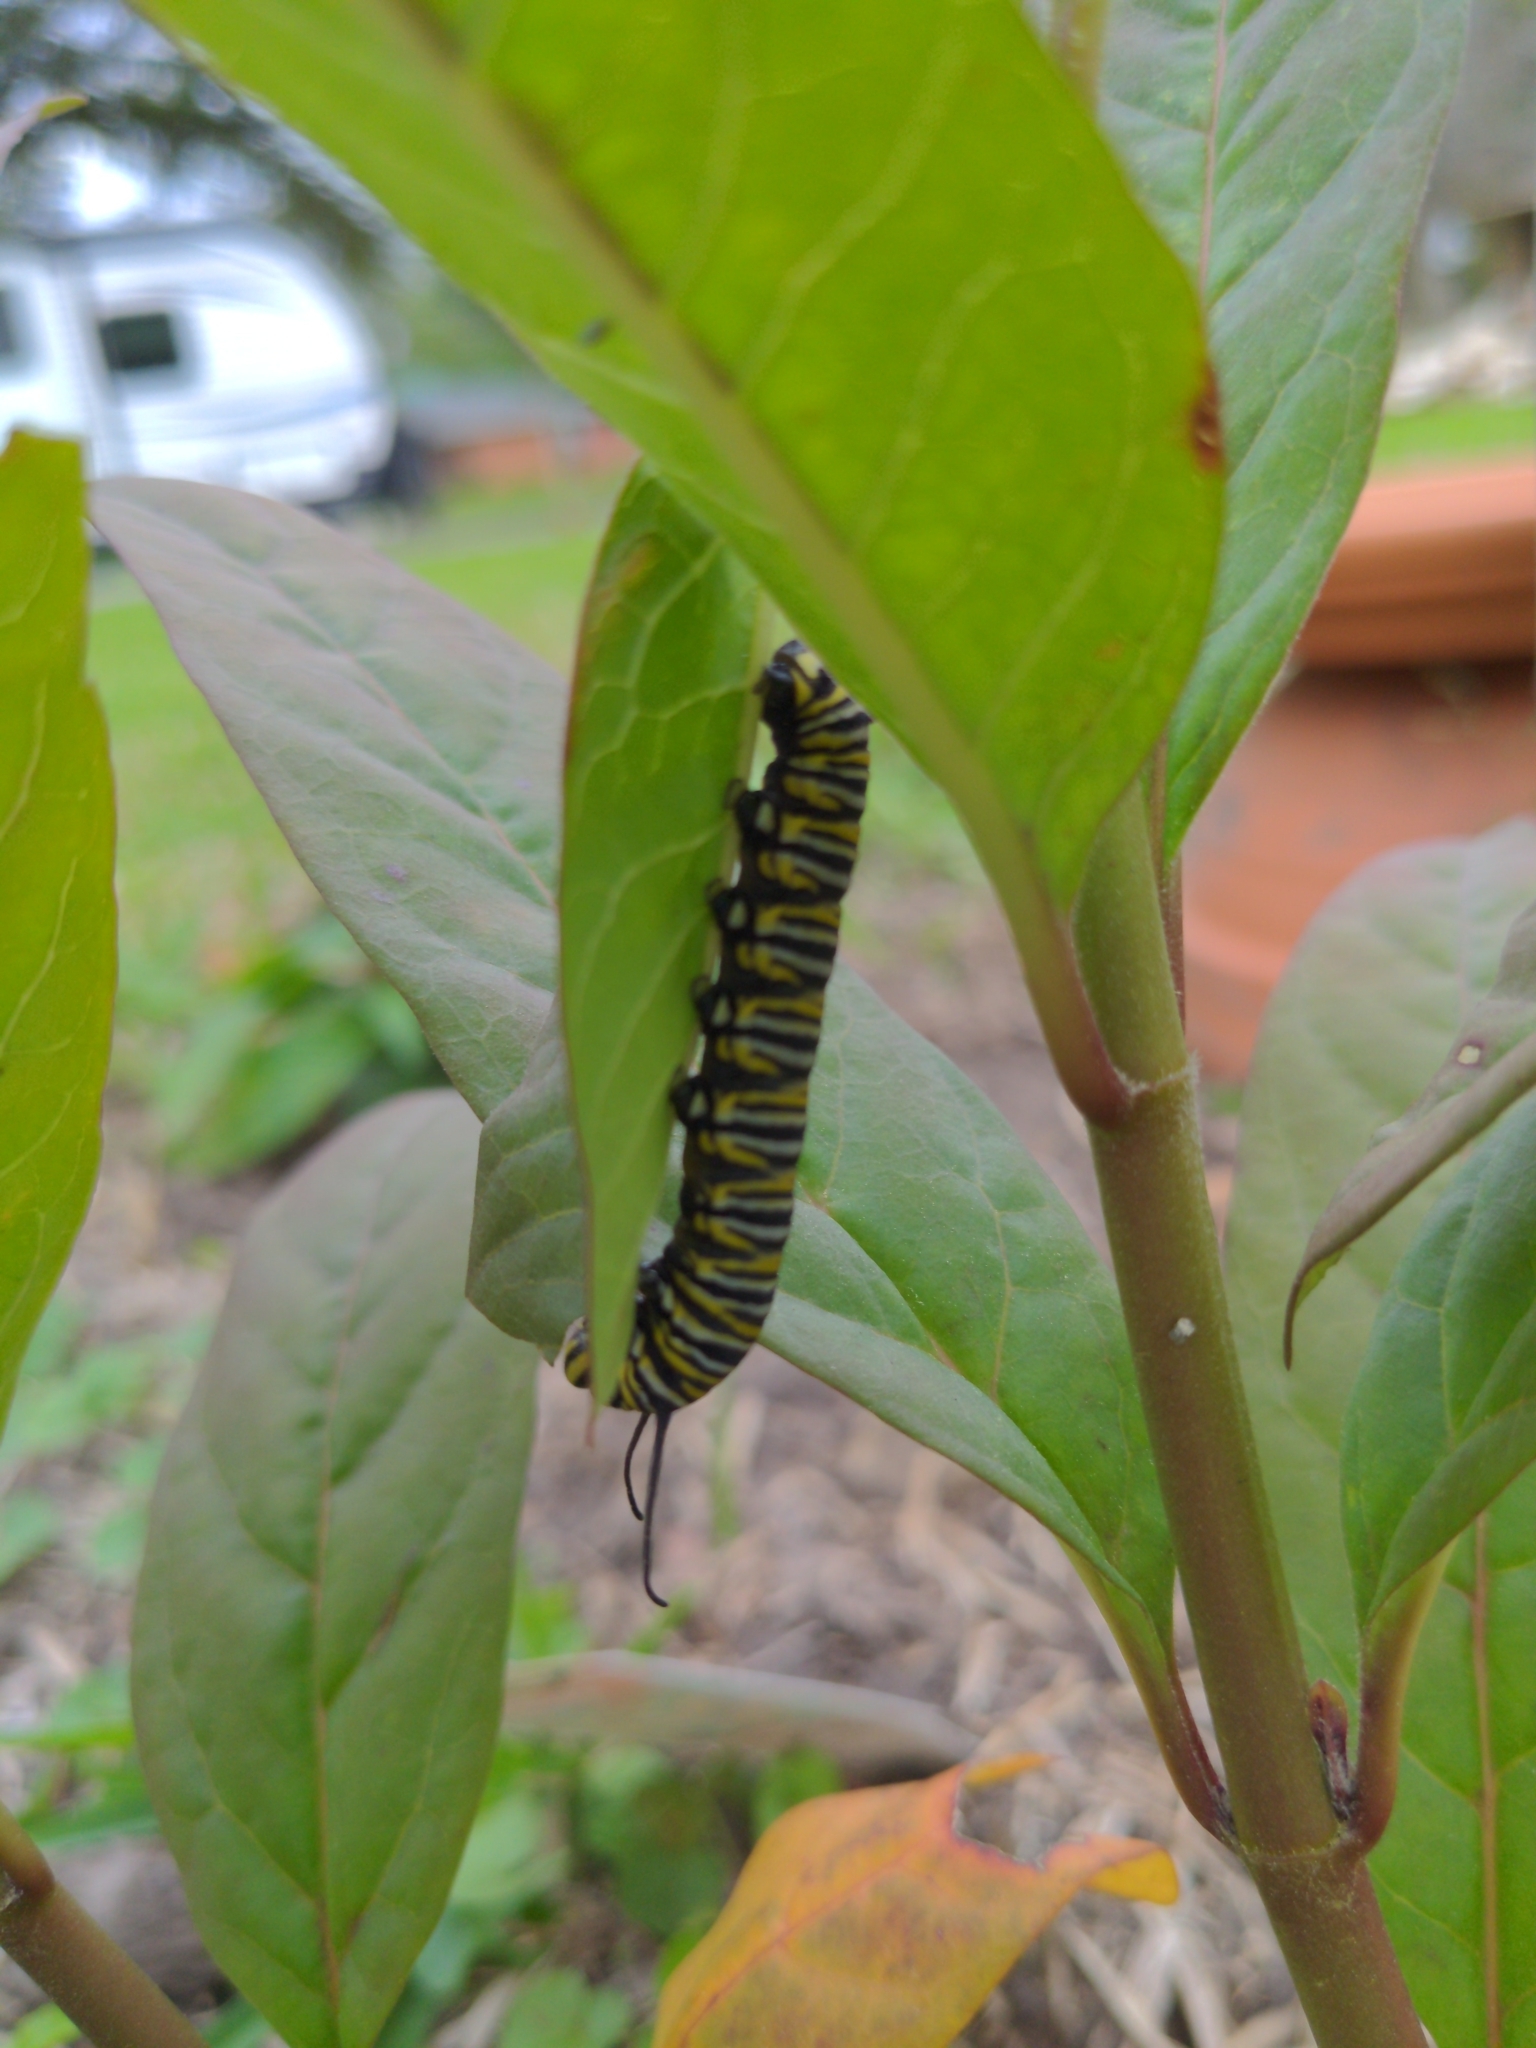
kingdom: Animalia
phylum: Arthropoda
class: Insecta
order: Lepidoptera
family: Nymphalidae
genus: Danaus
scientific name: Danaus plexippus
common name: Monarch
